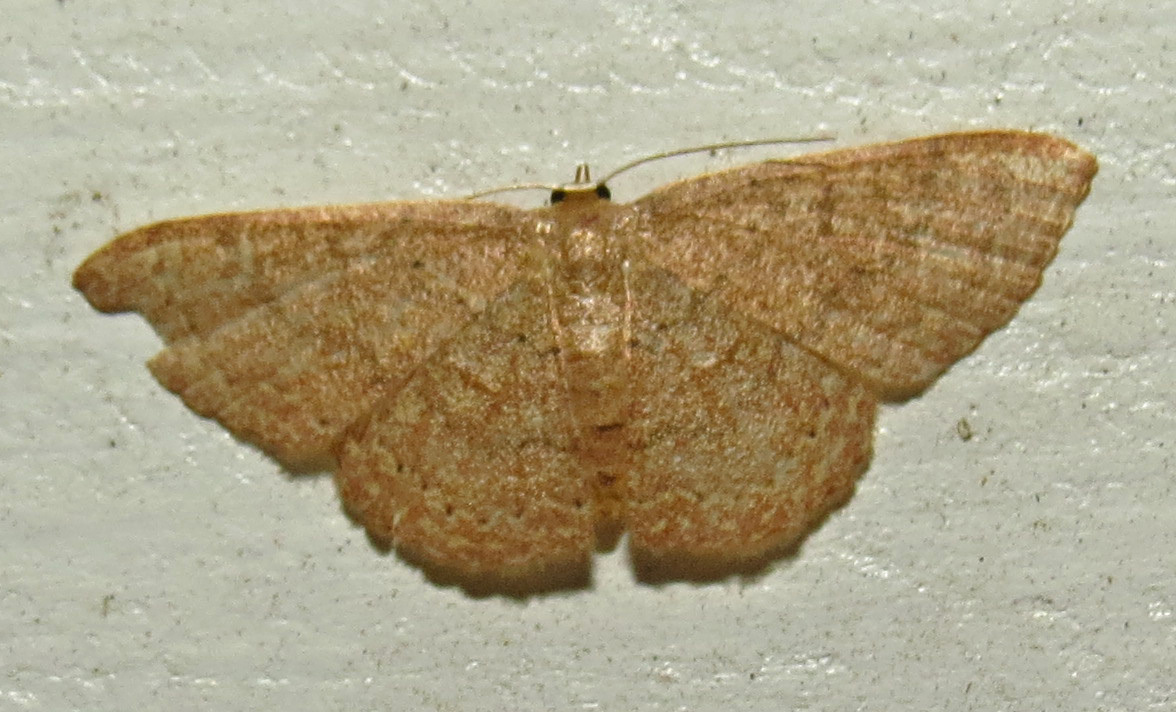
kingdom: Animalia
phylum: Arthropoda
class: Insecta
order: Lepidoptera
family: Geometridae
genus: Pleuroprucha
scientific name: Pleuroprucha insulsaria
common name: Common tan wave
